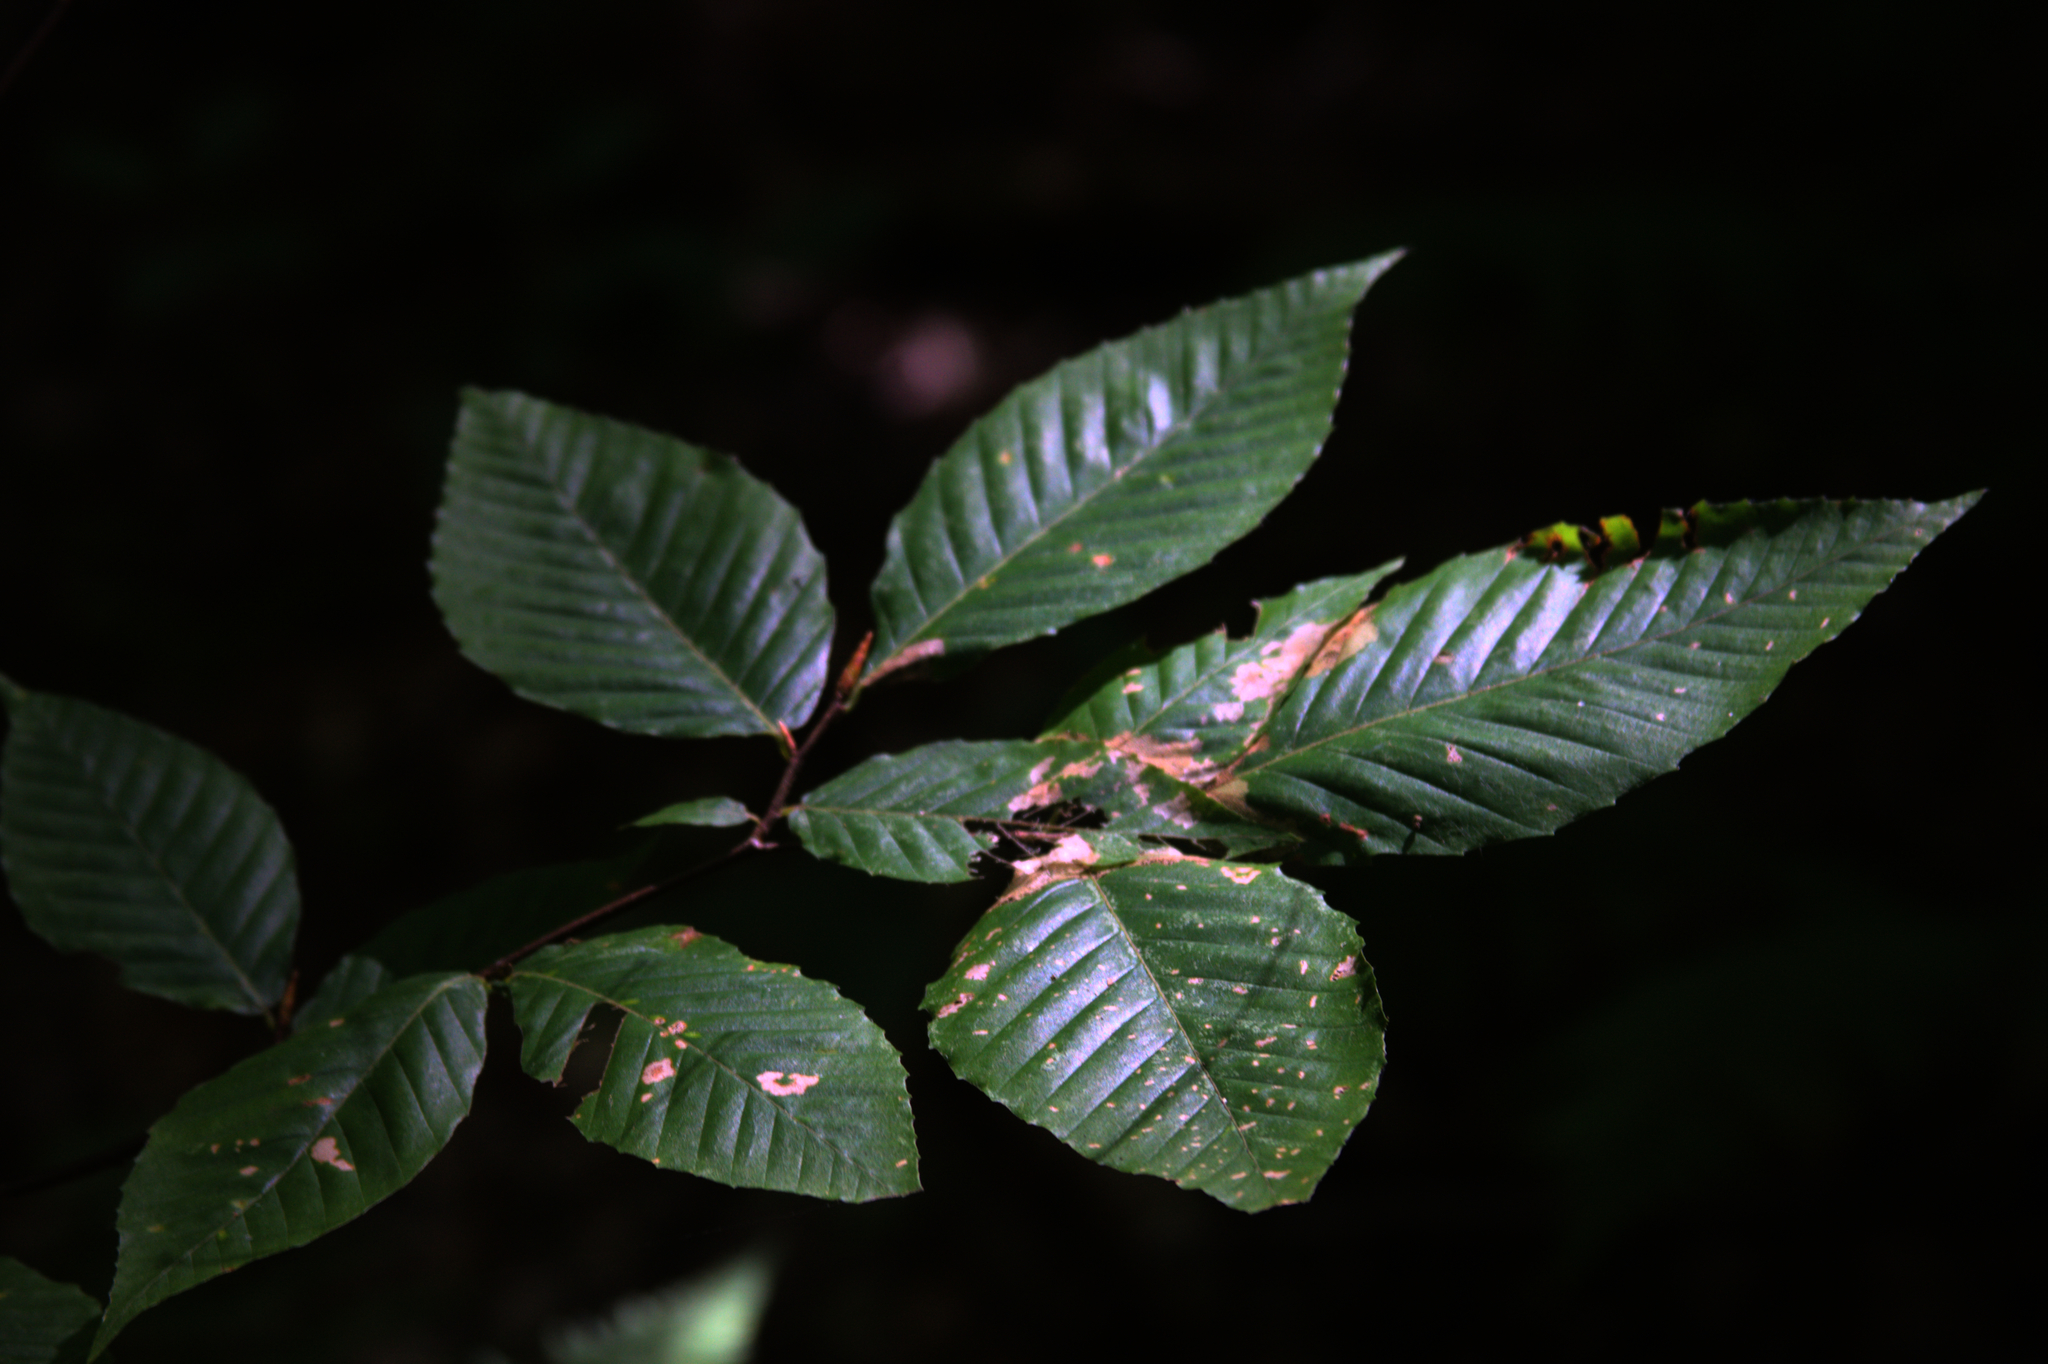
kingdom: Plantae
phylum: Tracheophyta
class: Magnoliopsida
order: Fagales
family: Fagaceae
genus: Fagus
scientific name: Fagus grandifolia
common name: American beech
